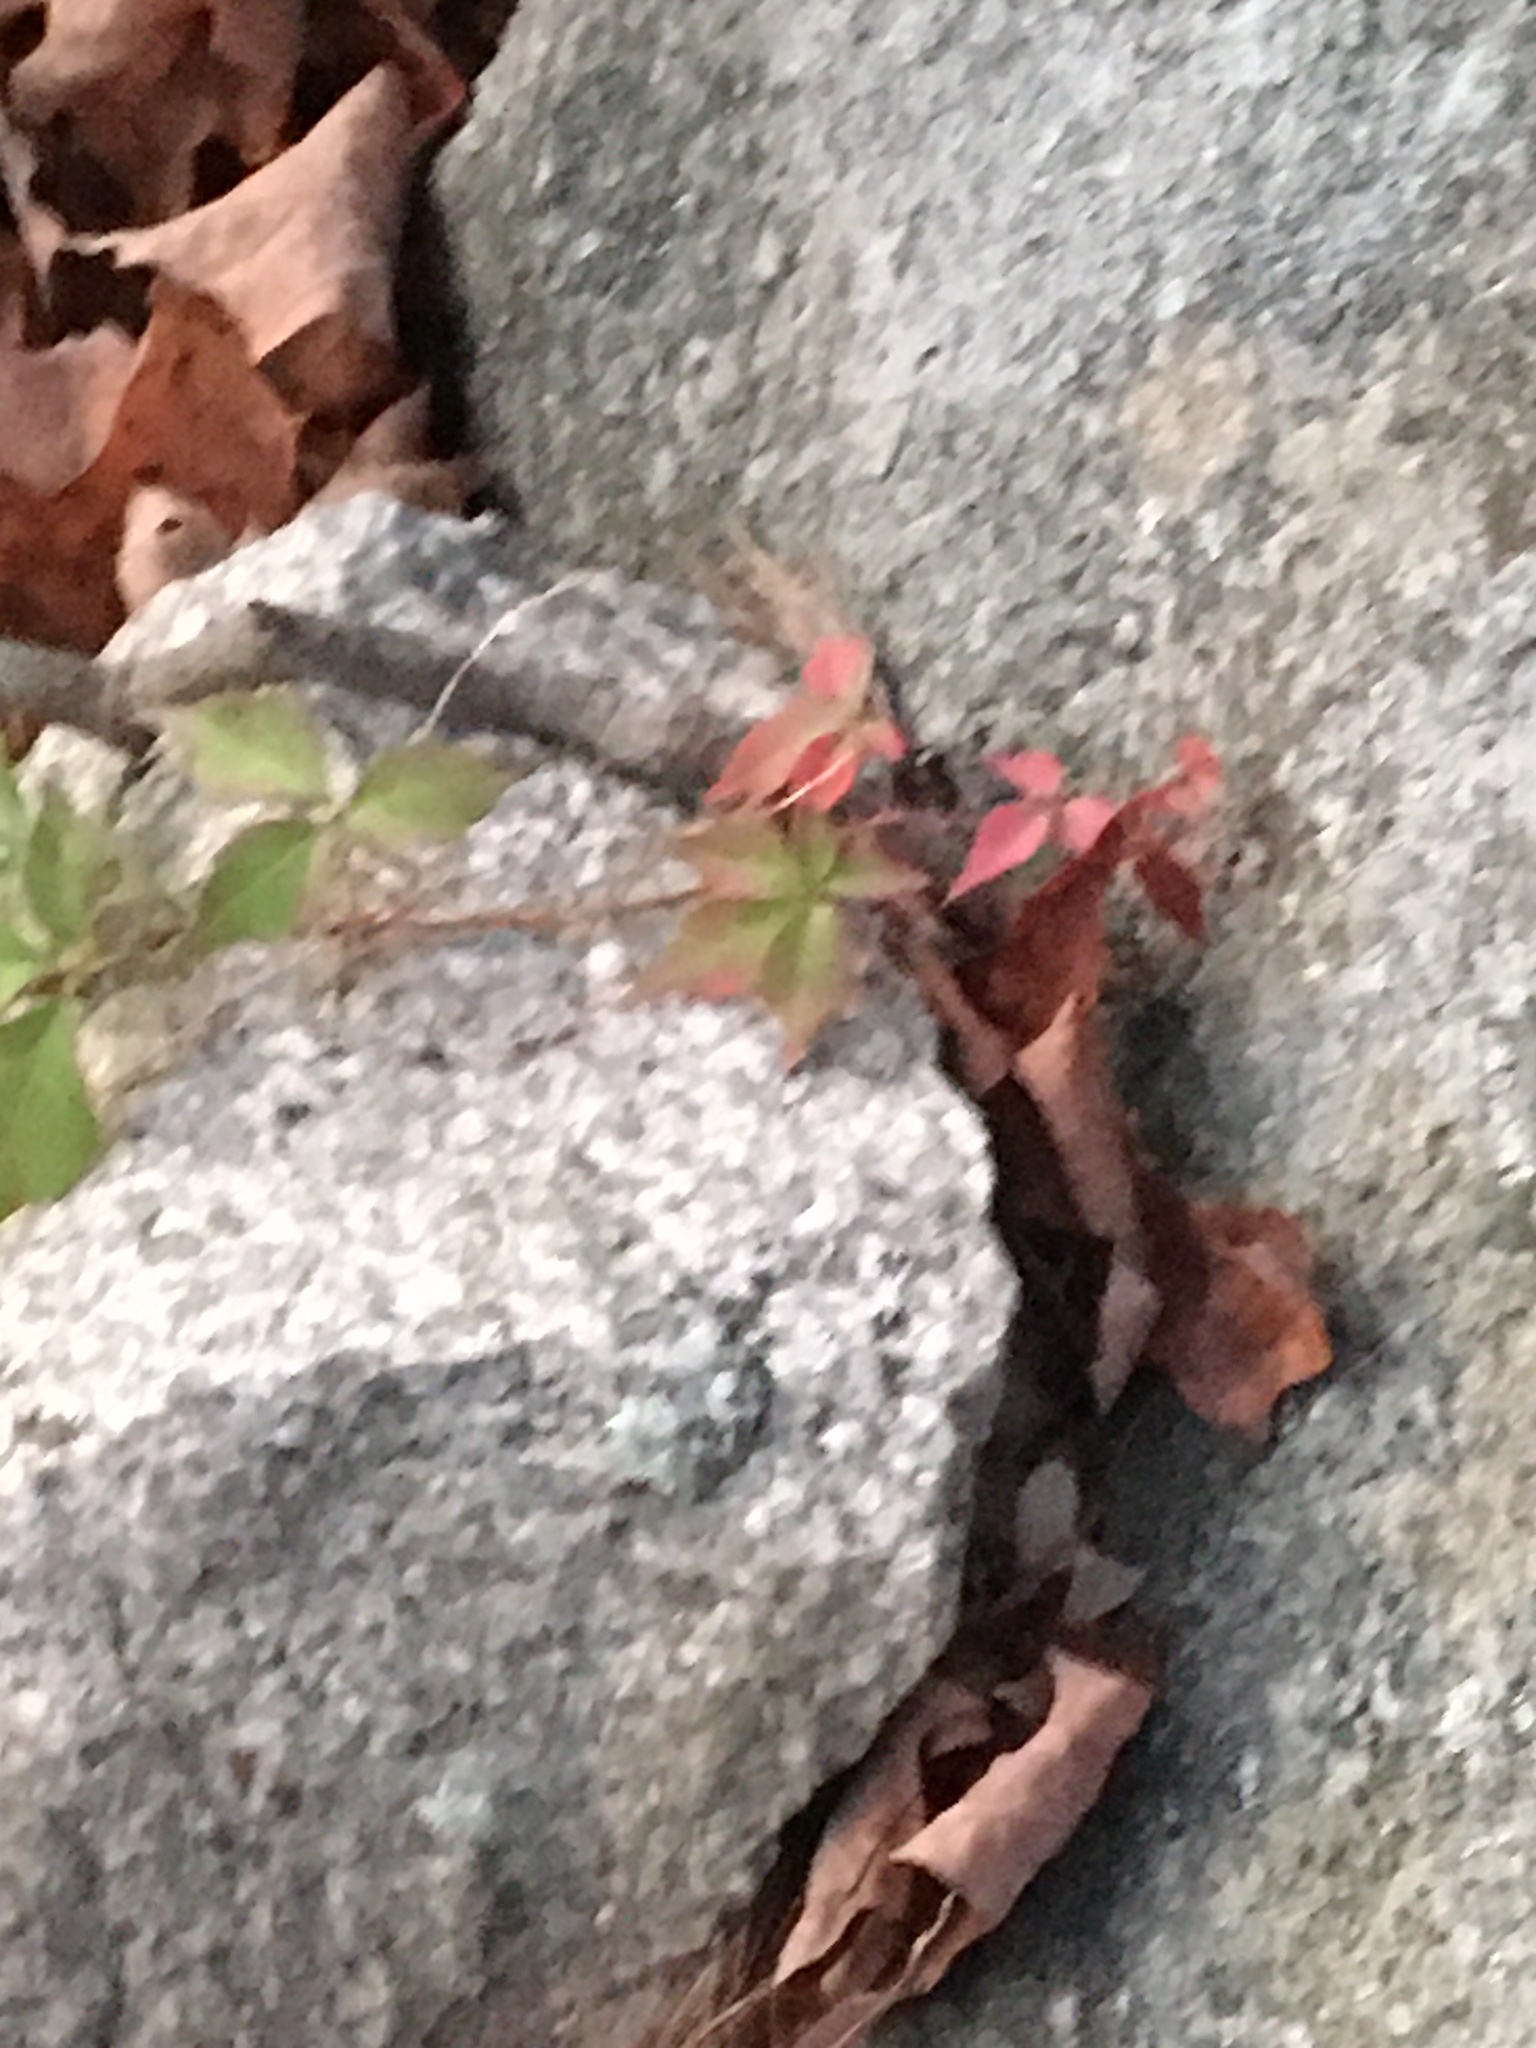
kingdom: Plantae
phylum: Tracheophyta
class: Magnoliopsida
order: Vitales
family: Vitaceae
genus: Parthenocissus
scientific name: Parthenocissus quinquefolia
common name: Virginia-creeper
